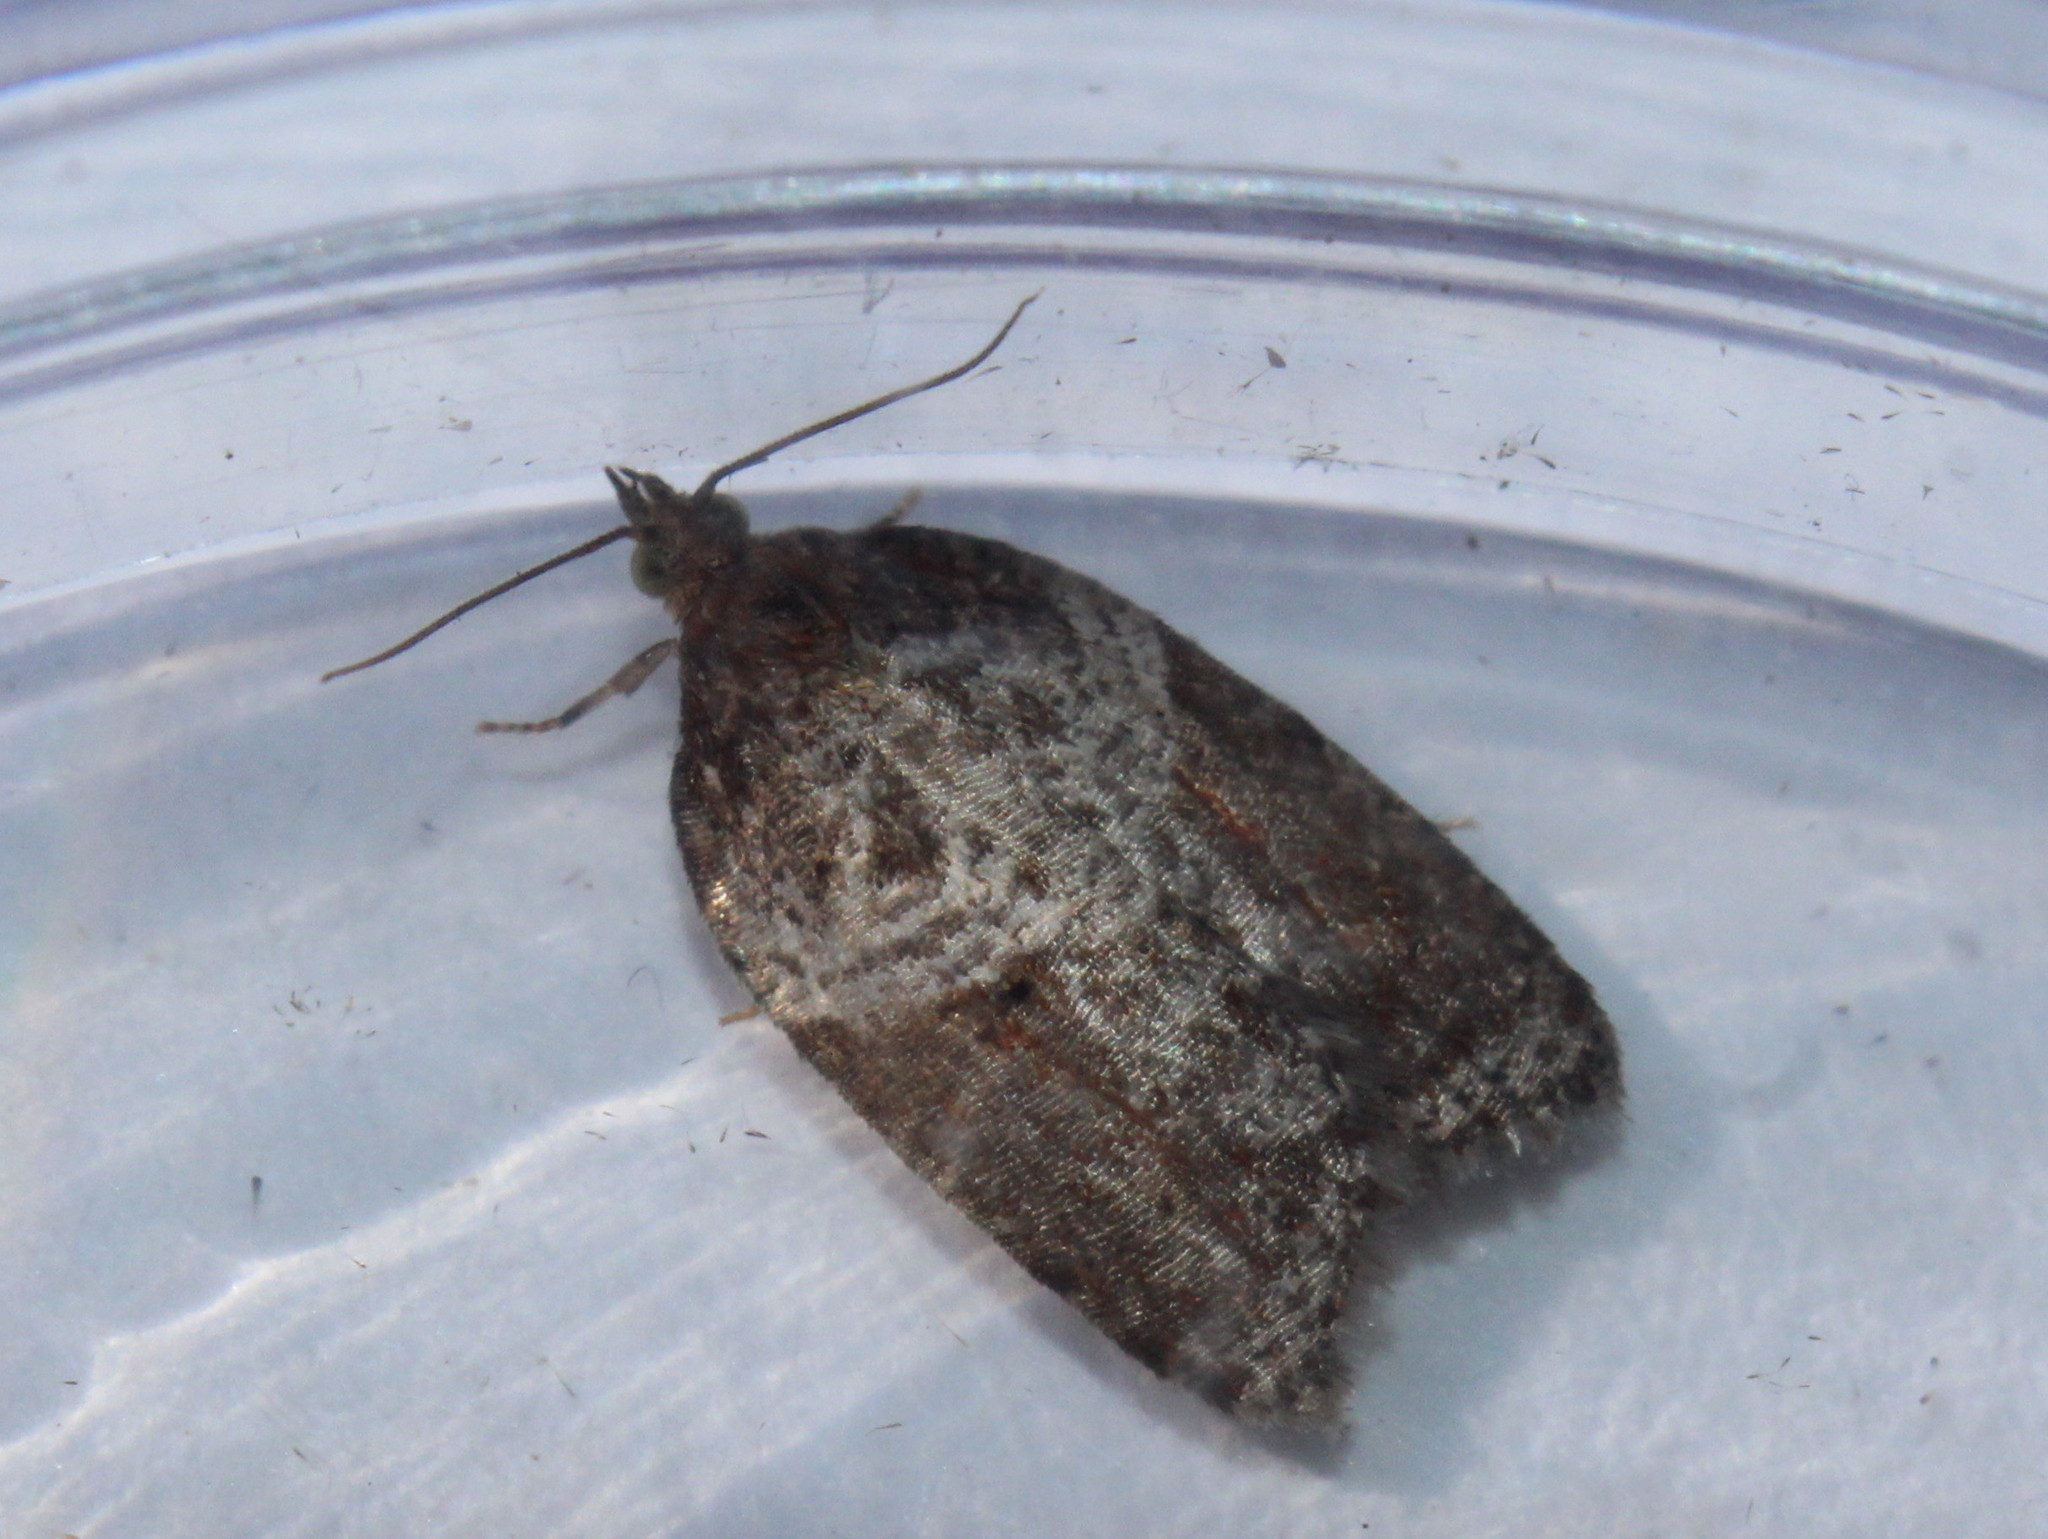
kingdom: Animalia
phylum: Arthropoda
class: Insecta
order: Lepidoptera
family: Tortricidae
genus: Acleris
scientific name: Acleris macdunnoughi
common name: Macdunnough's acleris
